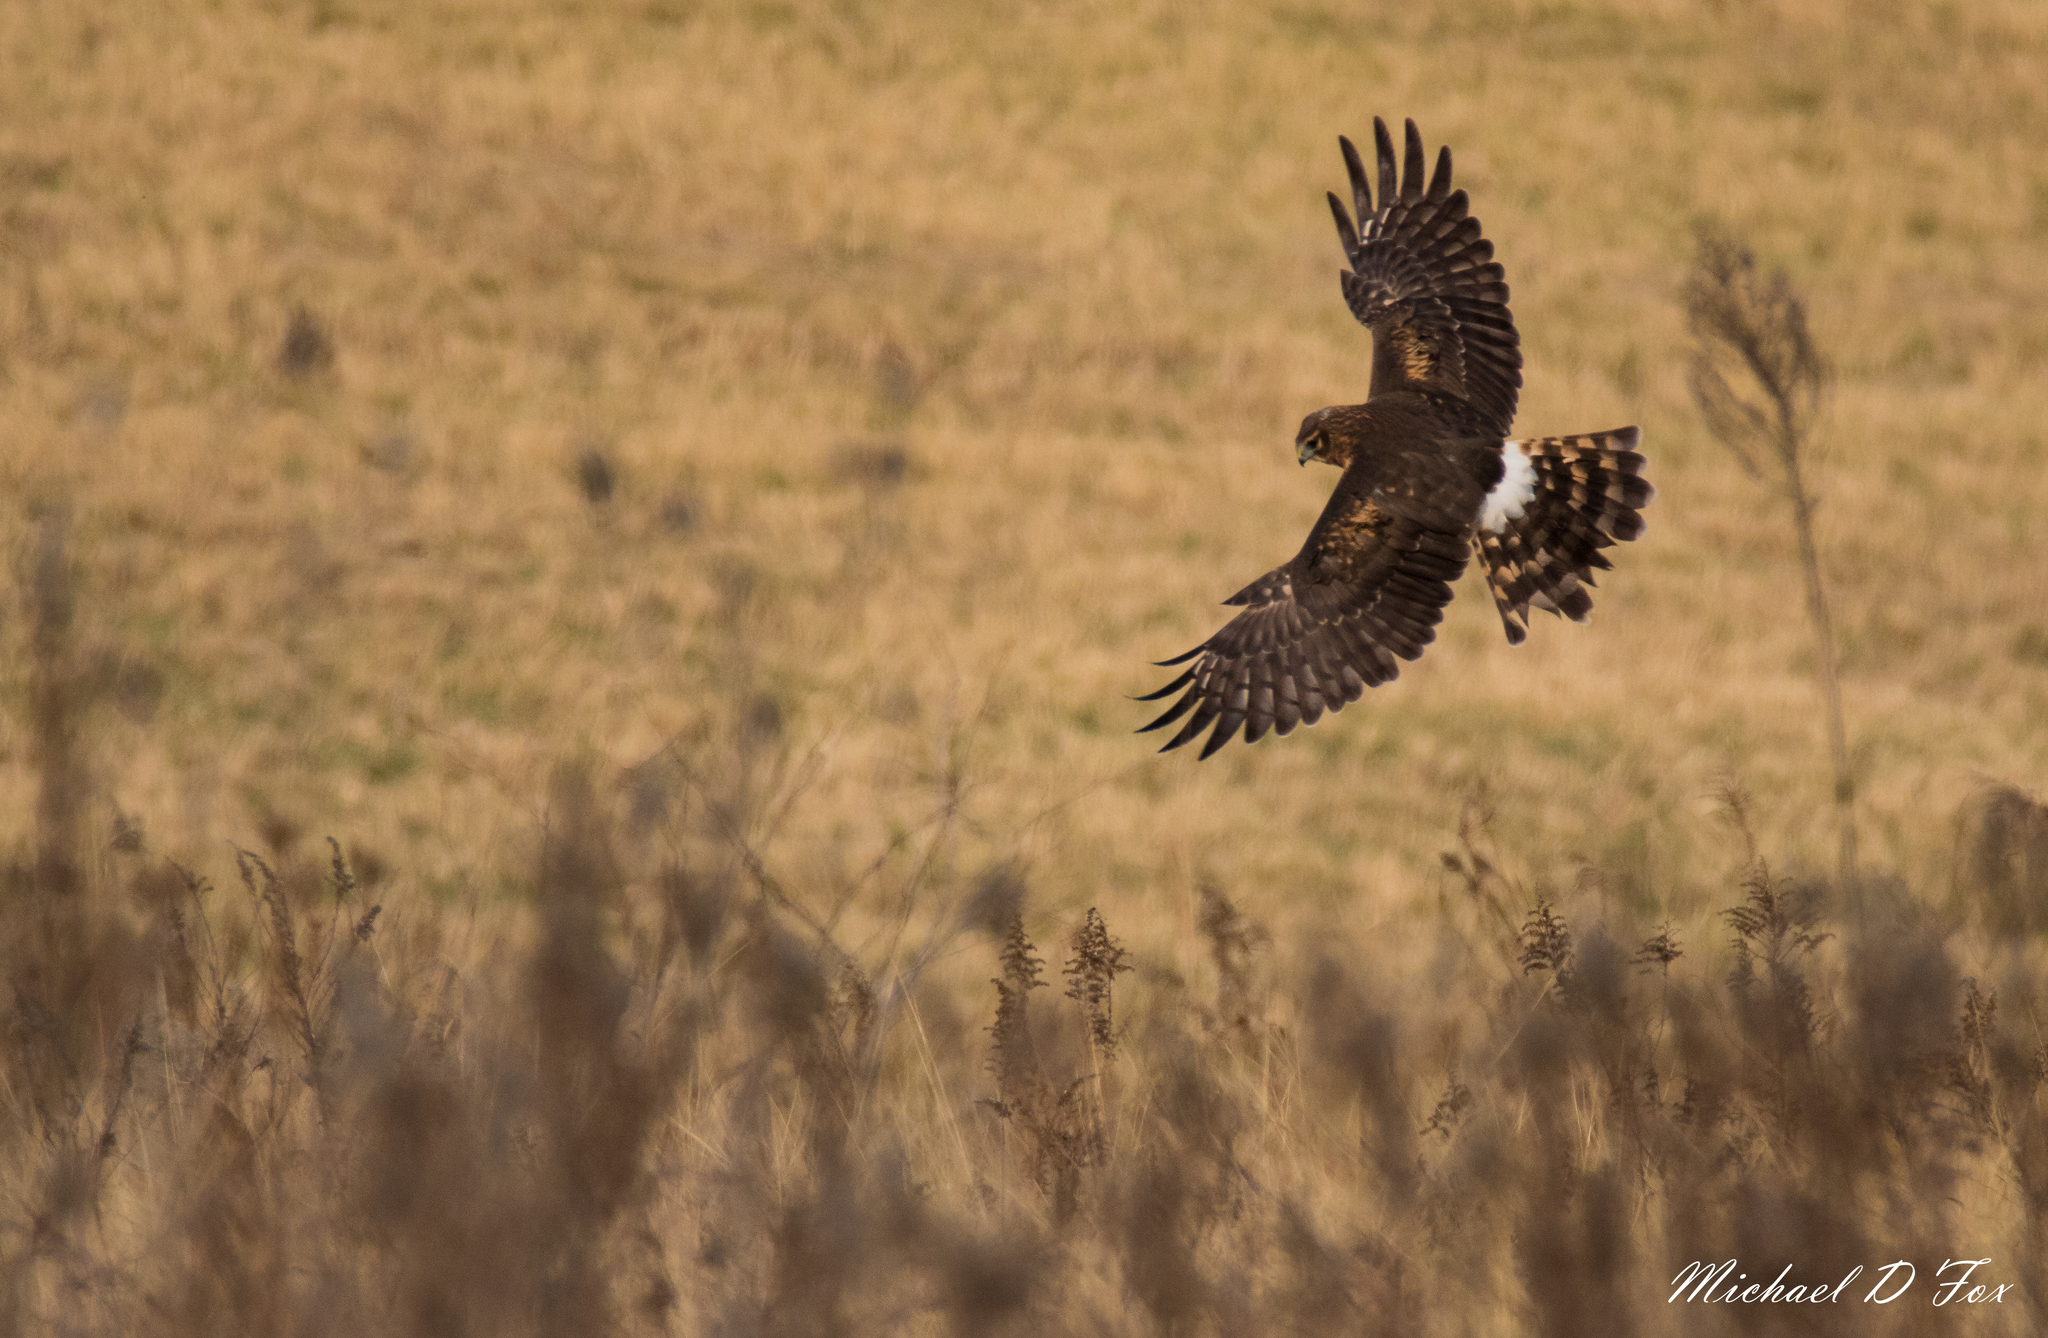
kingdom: Animalia
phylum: Chordata
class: Aves
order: Accipitriformes
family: Accipitridae
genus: Circus
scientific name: Circus cyaneus
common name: Hen harrier
